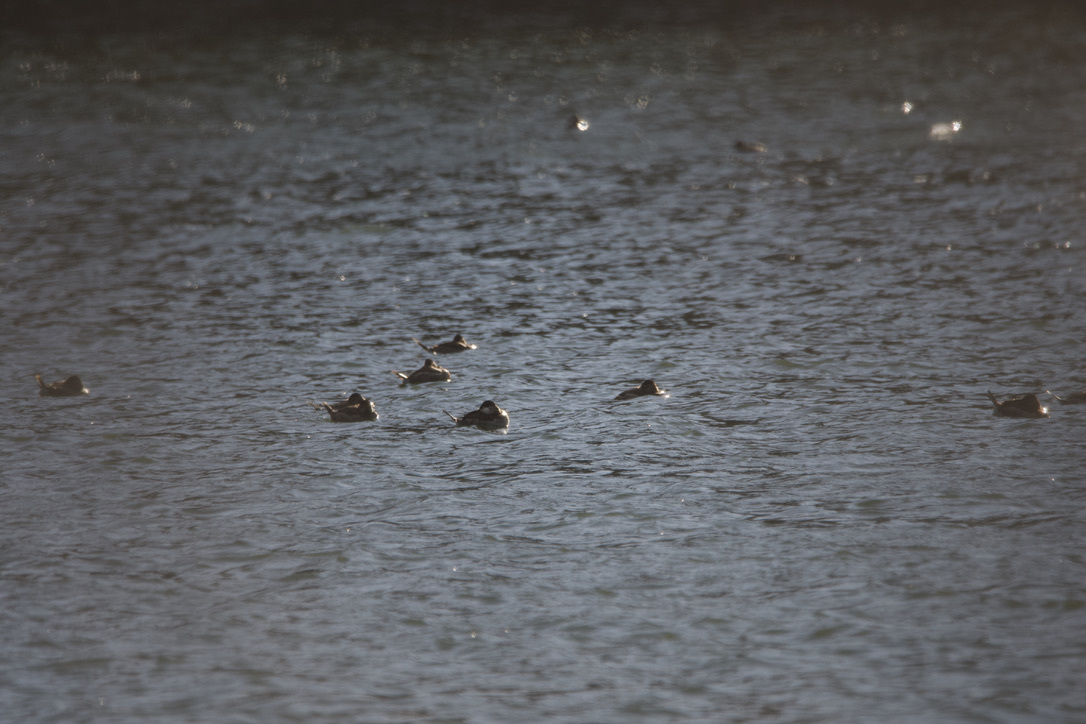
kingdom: Animalia
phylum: Chordata
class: Aves
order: Anseriformes
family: Anatidae
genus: Oxyura
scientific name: Oxyura jamaicensis
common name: Ruddy duck
